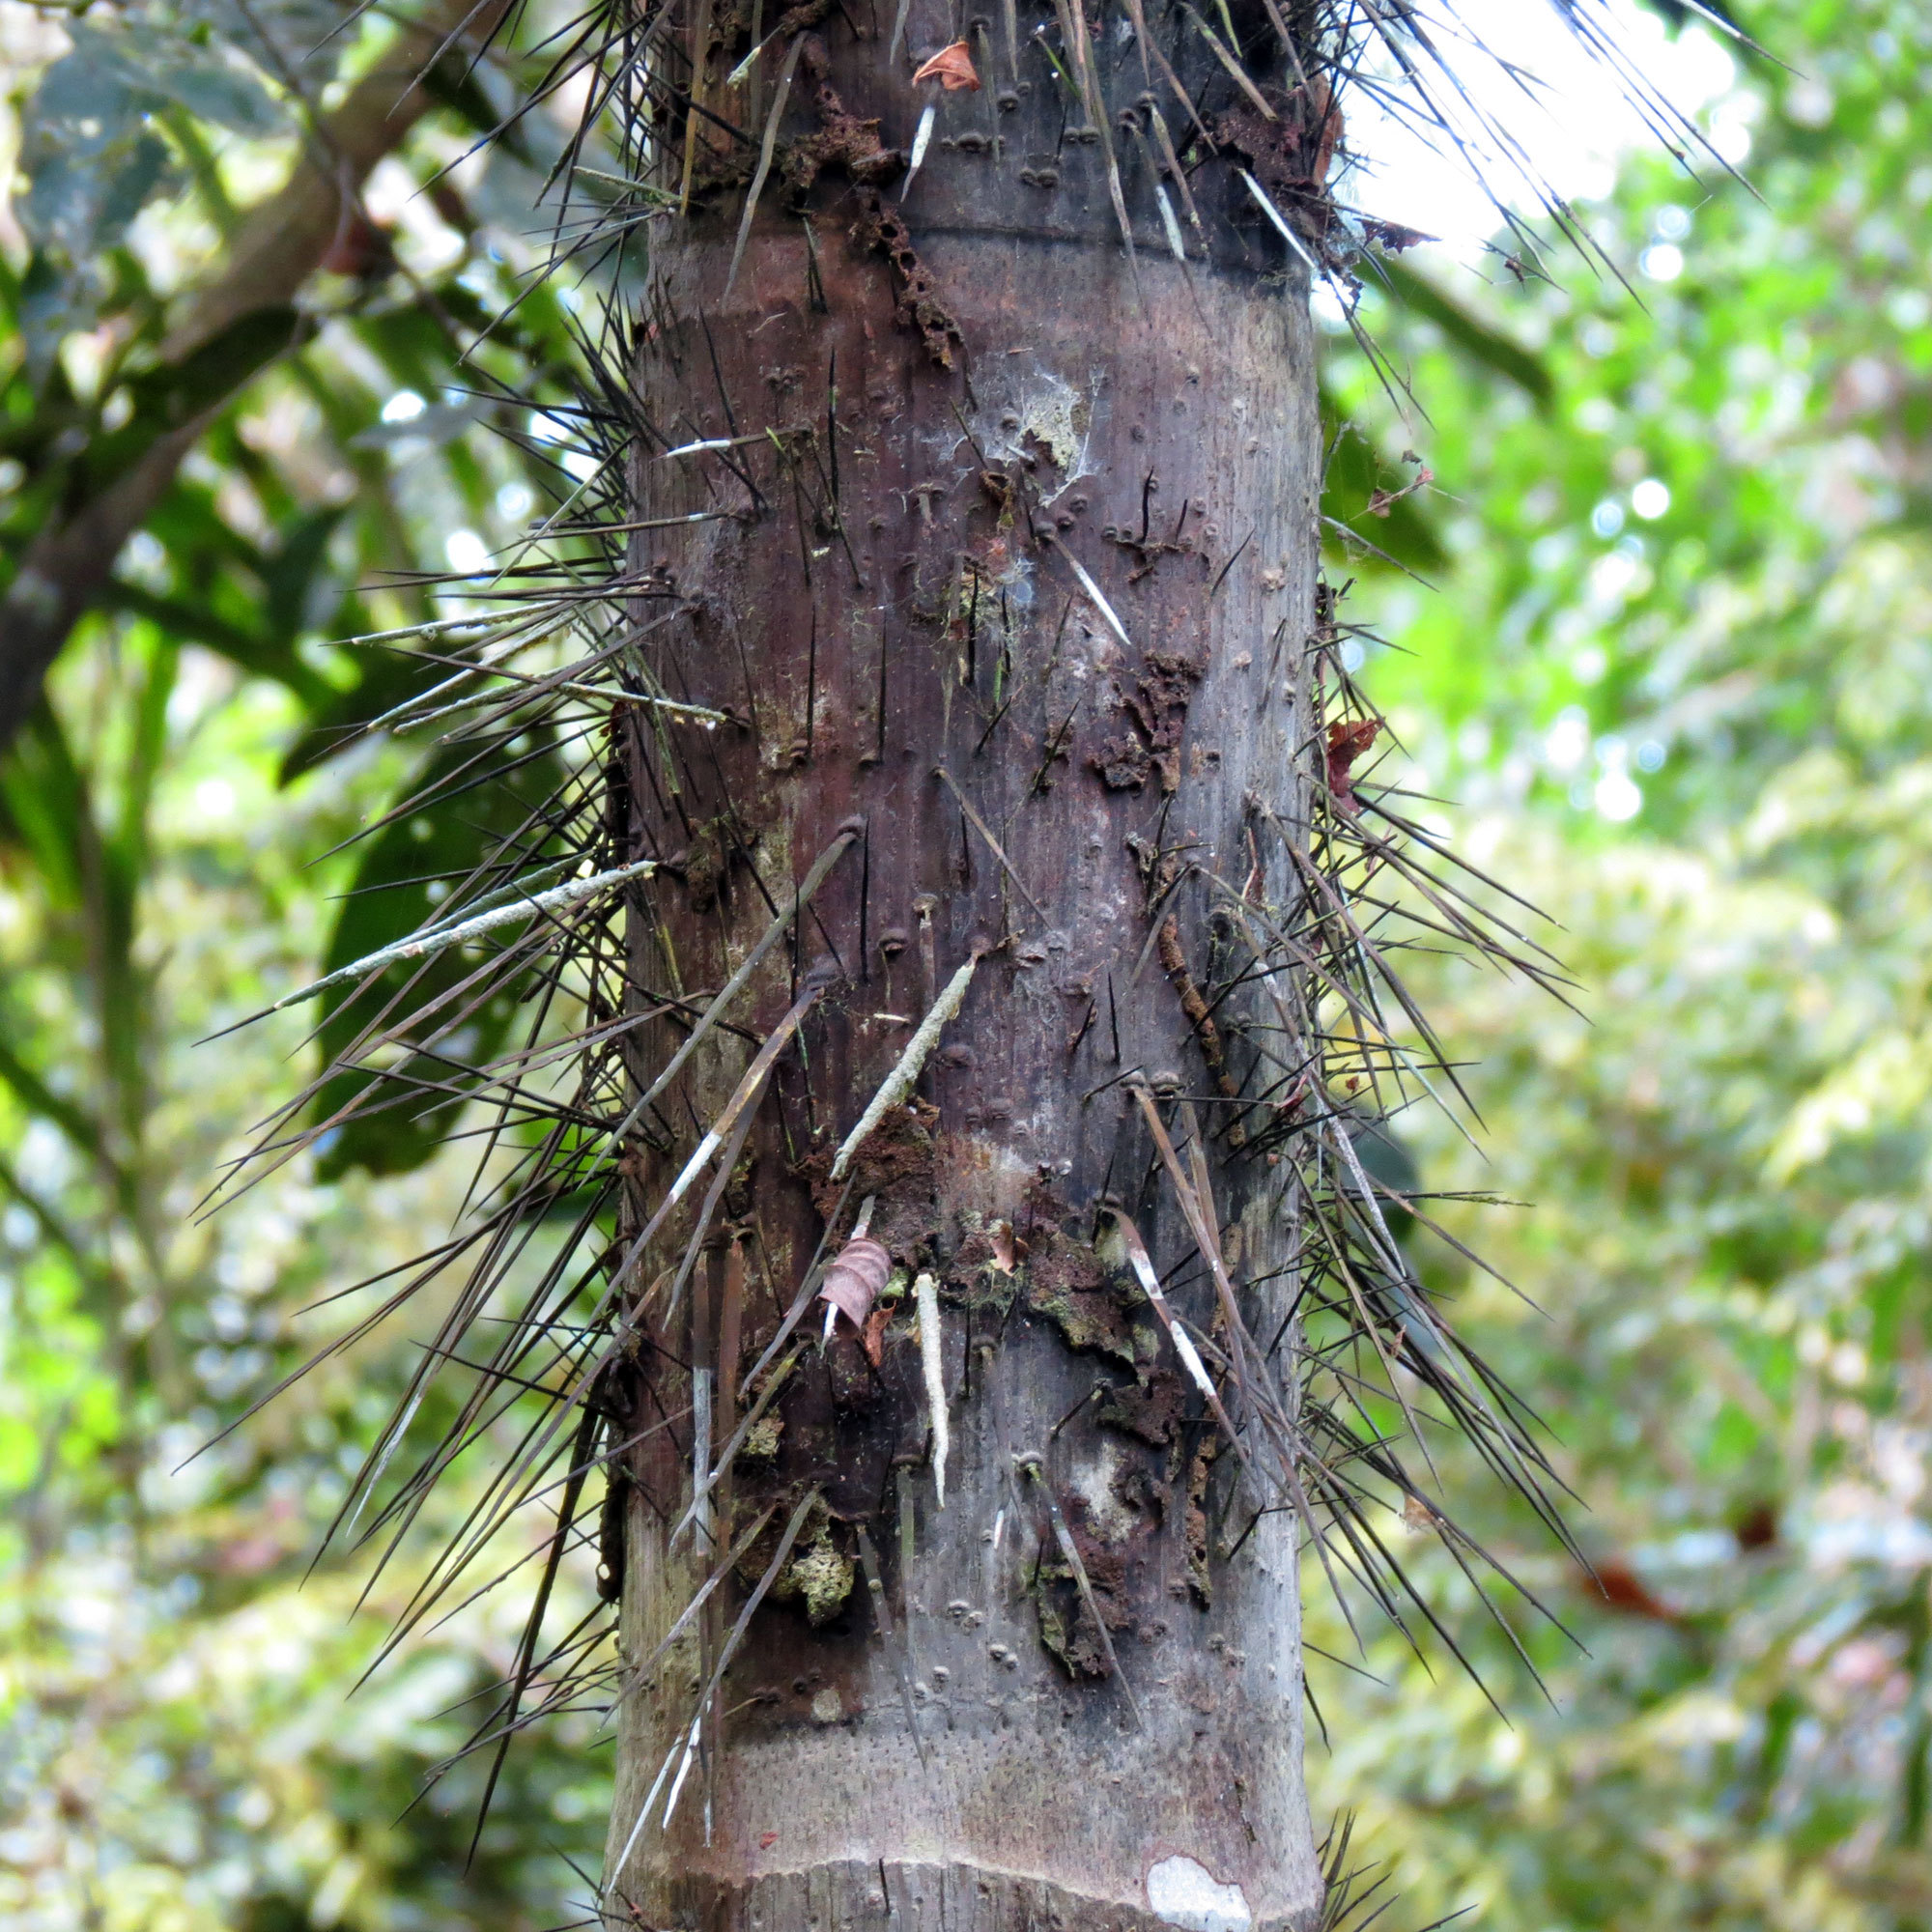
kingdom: Plantae
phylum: Tracheophyta
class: Liliopsida
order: Arecales
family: Arecaceae
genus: Astrocaryum
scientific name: Astrocaryum standleyanum
